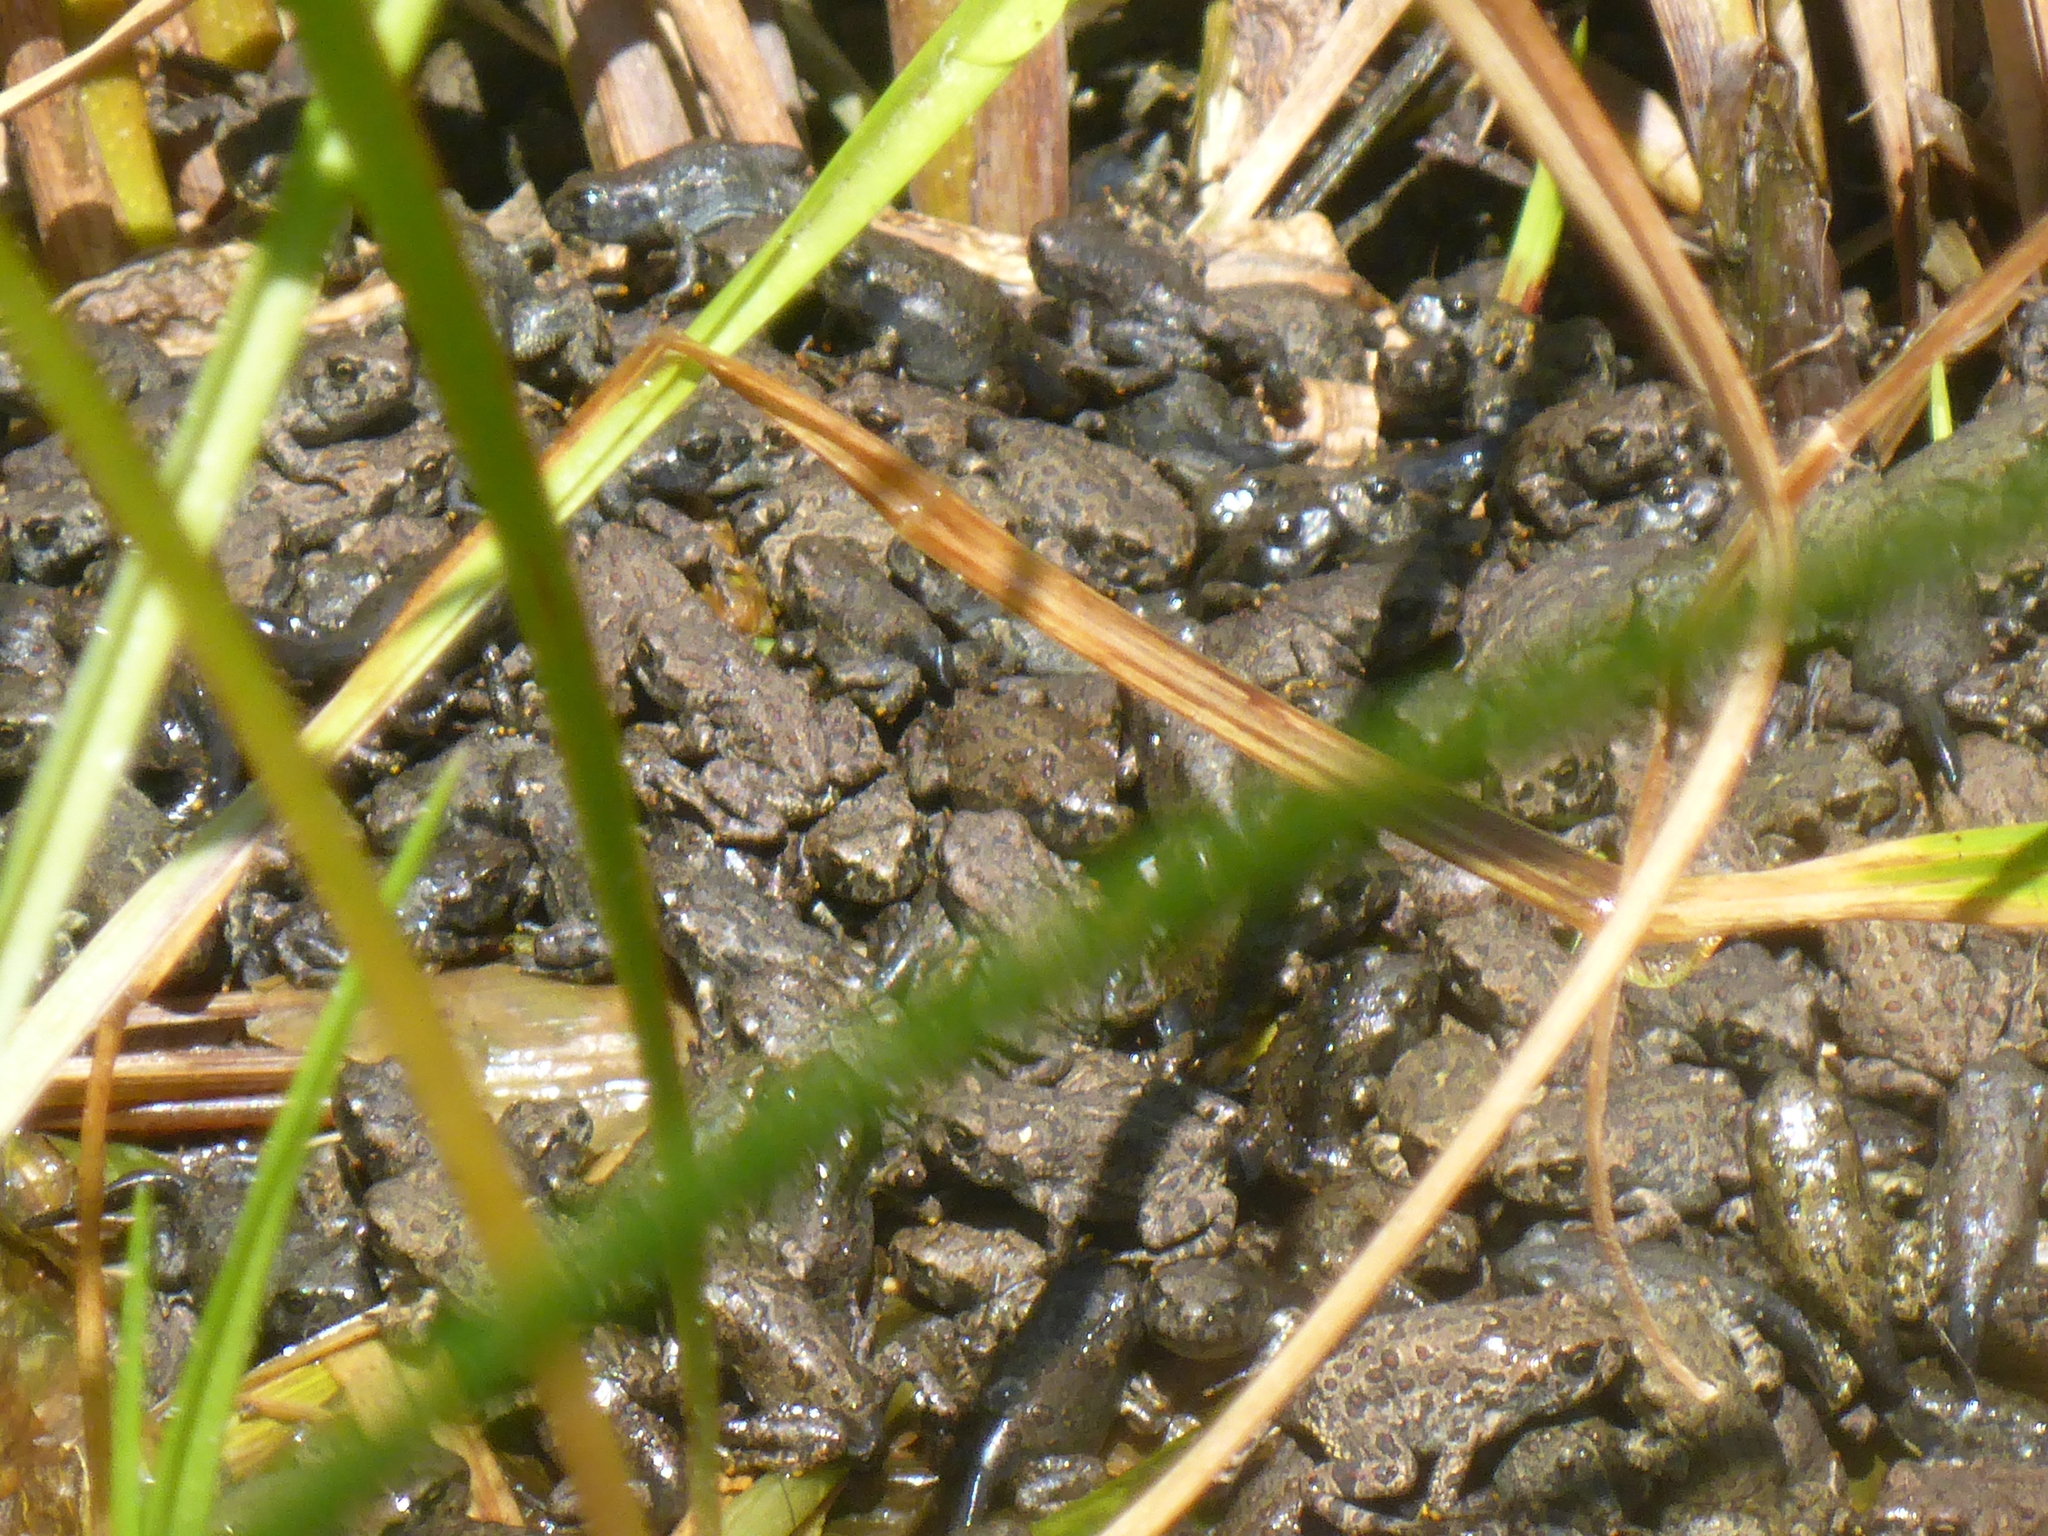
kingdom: Animalia
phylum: Chordata
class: Amphibia
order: Anura
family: Bufonidae
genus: Anaxyrus
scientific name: Anaxyrus boreas
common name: Western toad
